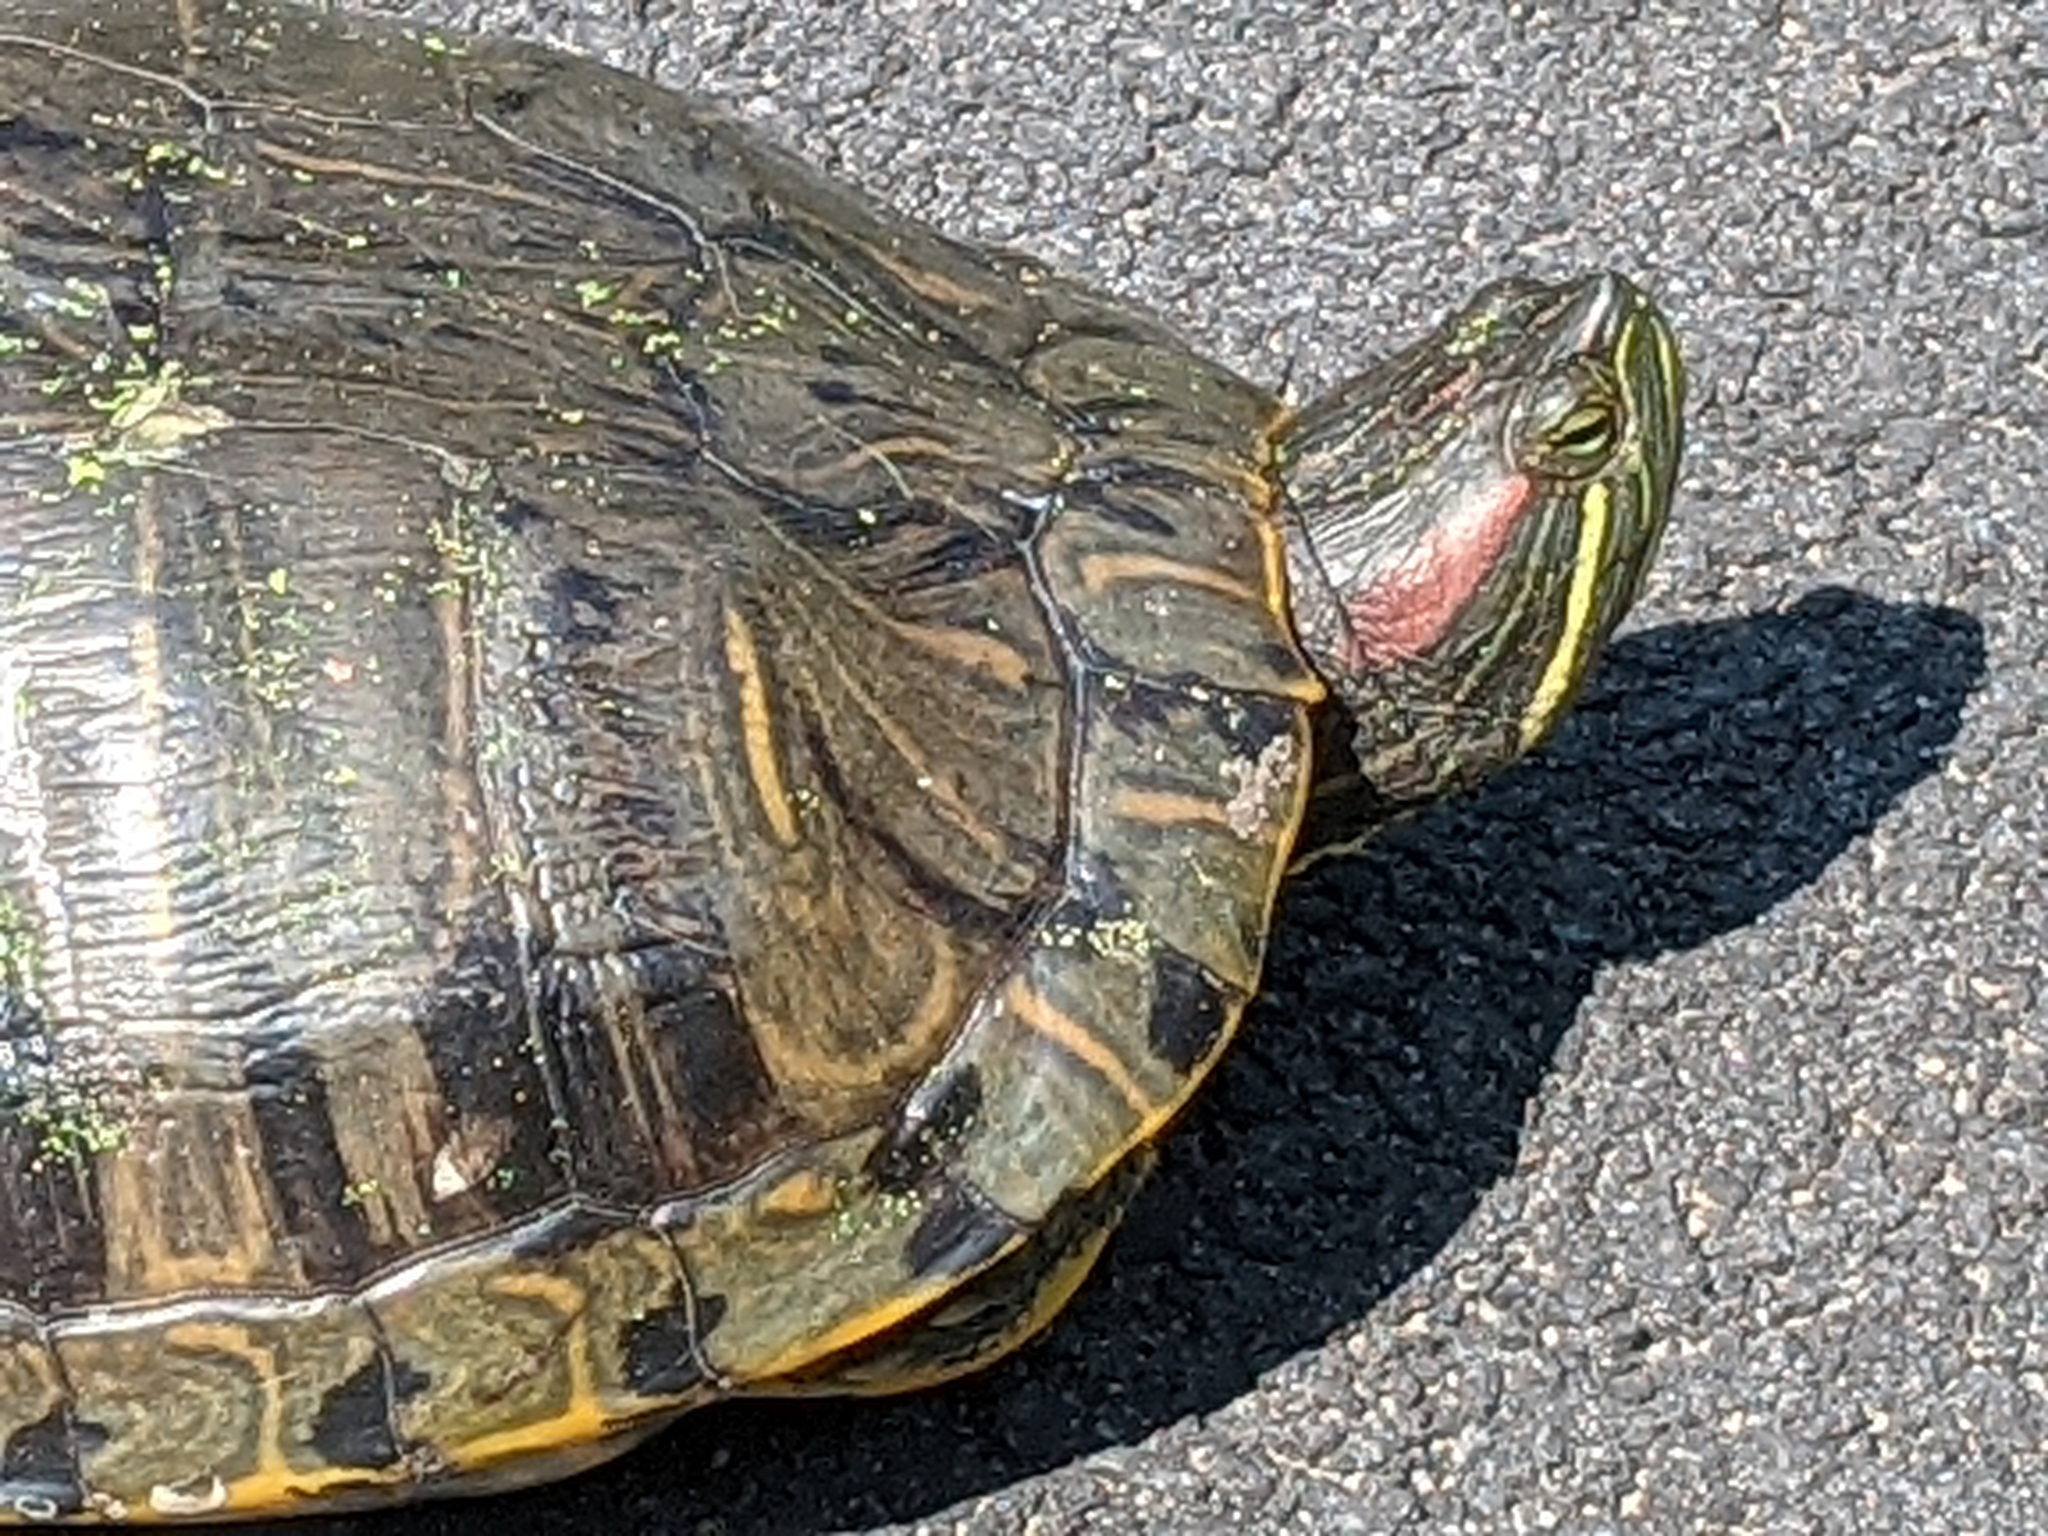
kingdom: Animalia
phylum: Chordata
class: Testudines
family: Emydidae
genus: Trachemys
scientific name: Trachemys scripta
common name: Slider
